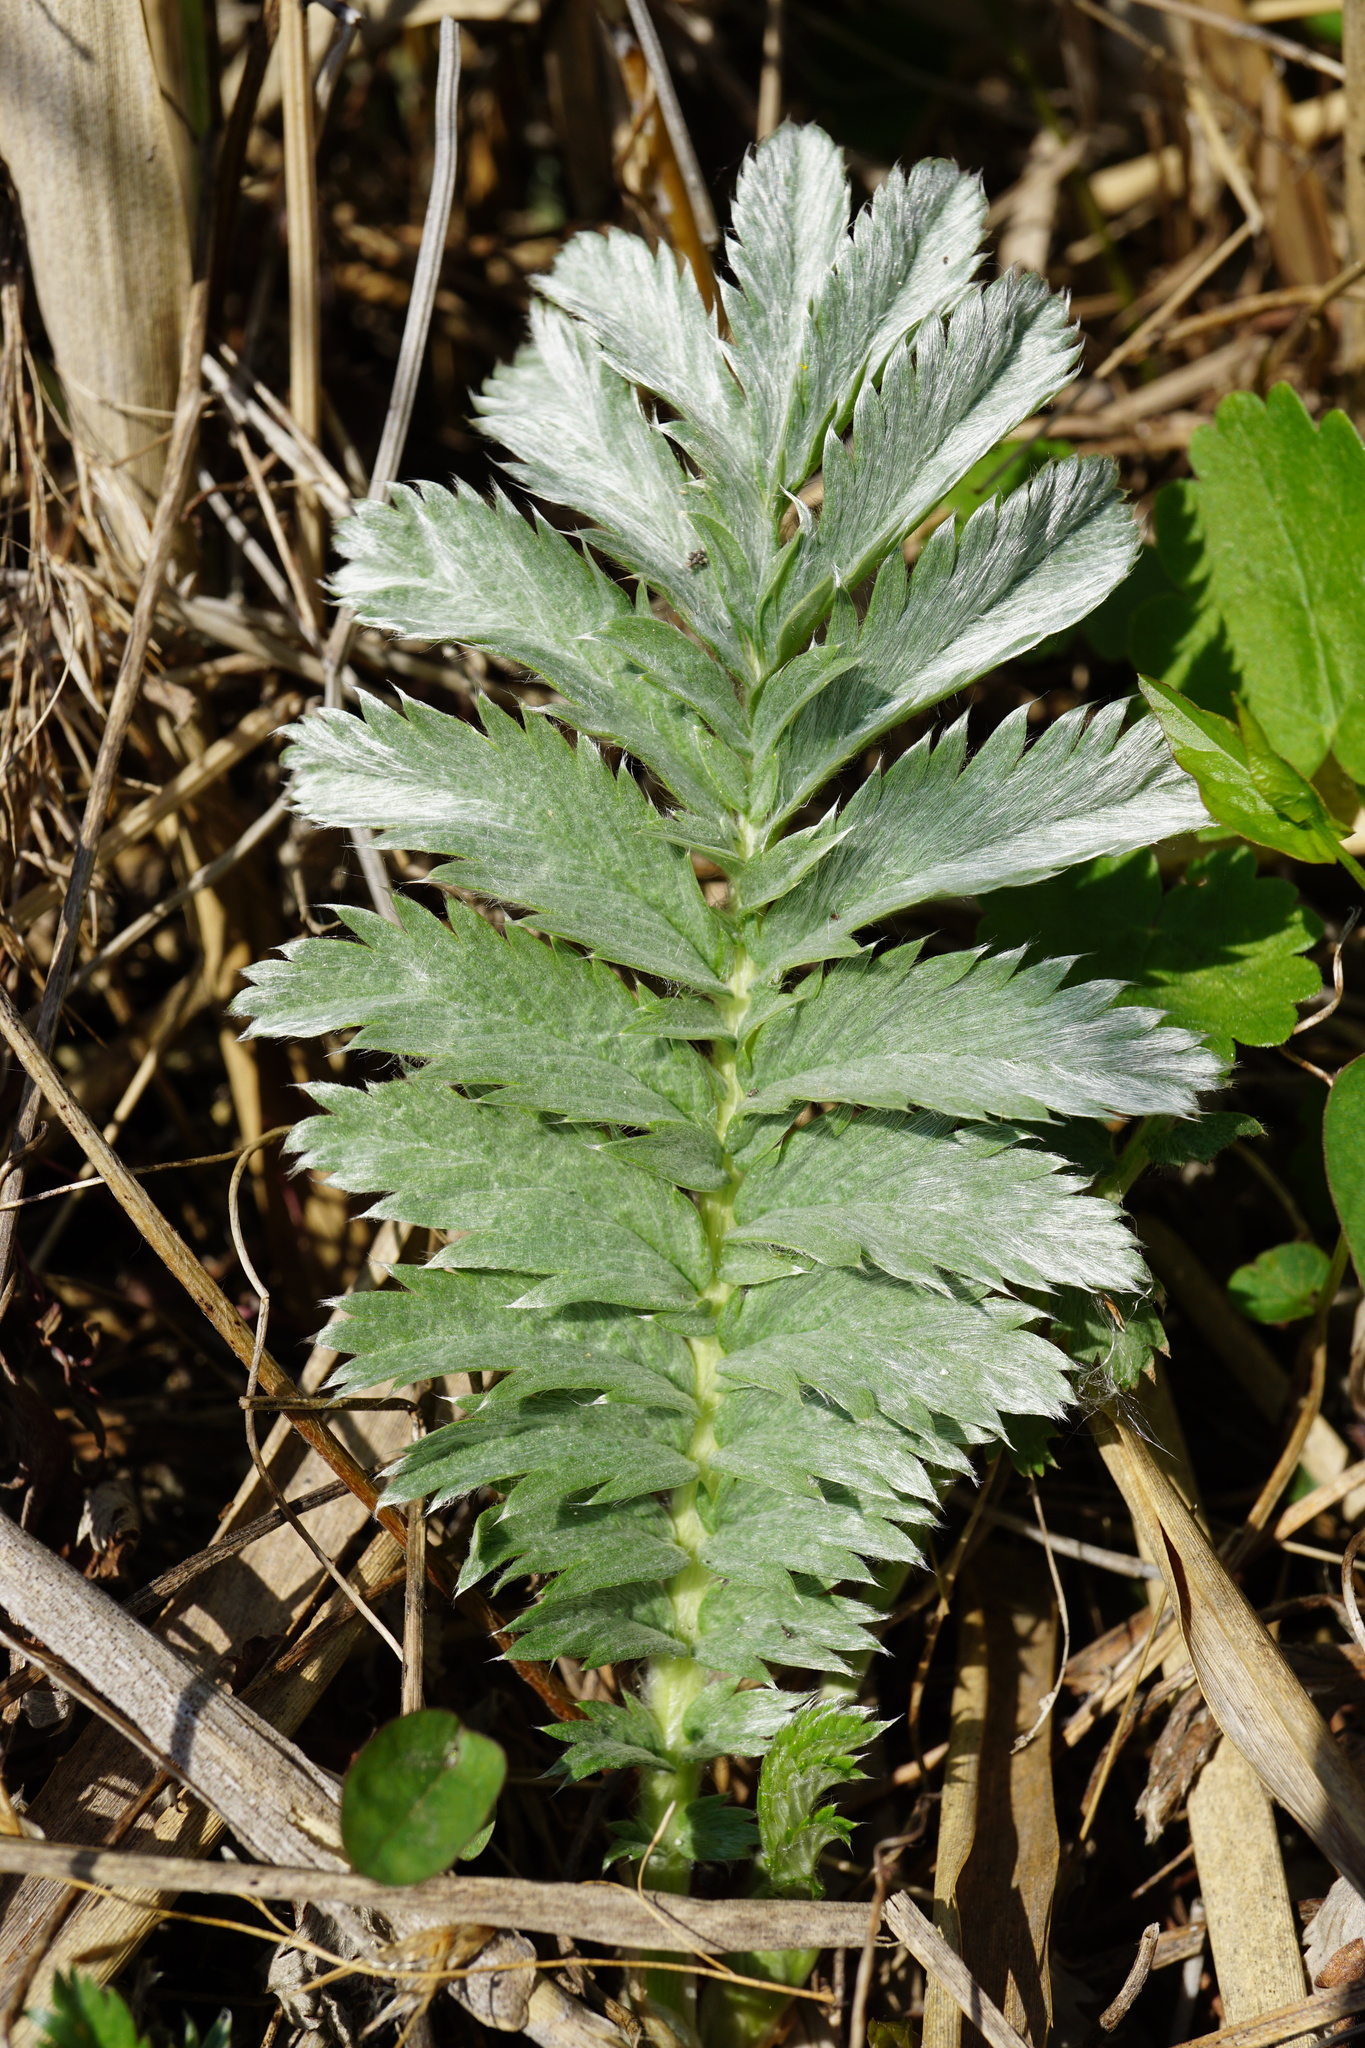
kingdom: Plantae
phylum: Tracheophyta
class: Magnoliopsida
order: Rosales
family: Rosaceae
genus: Argentina
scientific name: Argentina anserina
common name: Common silverweed
